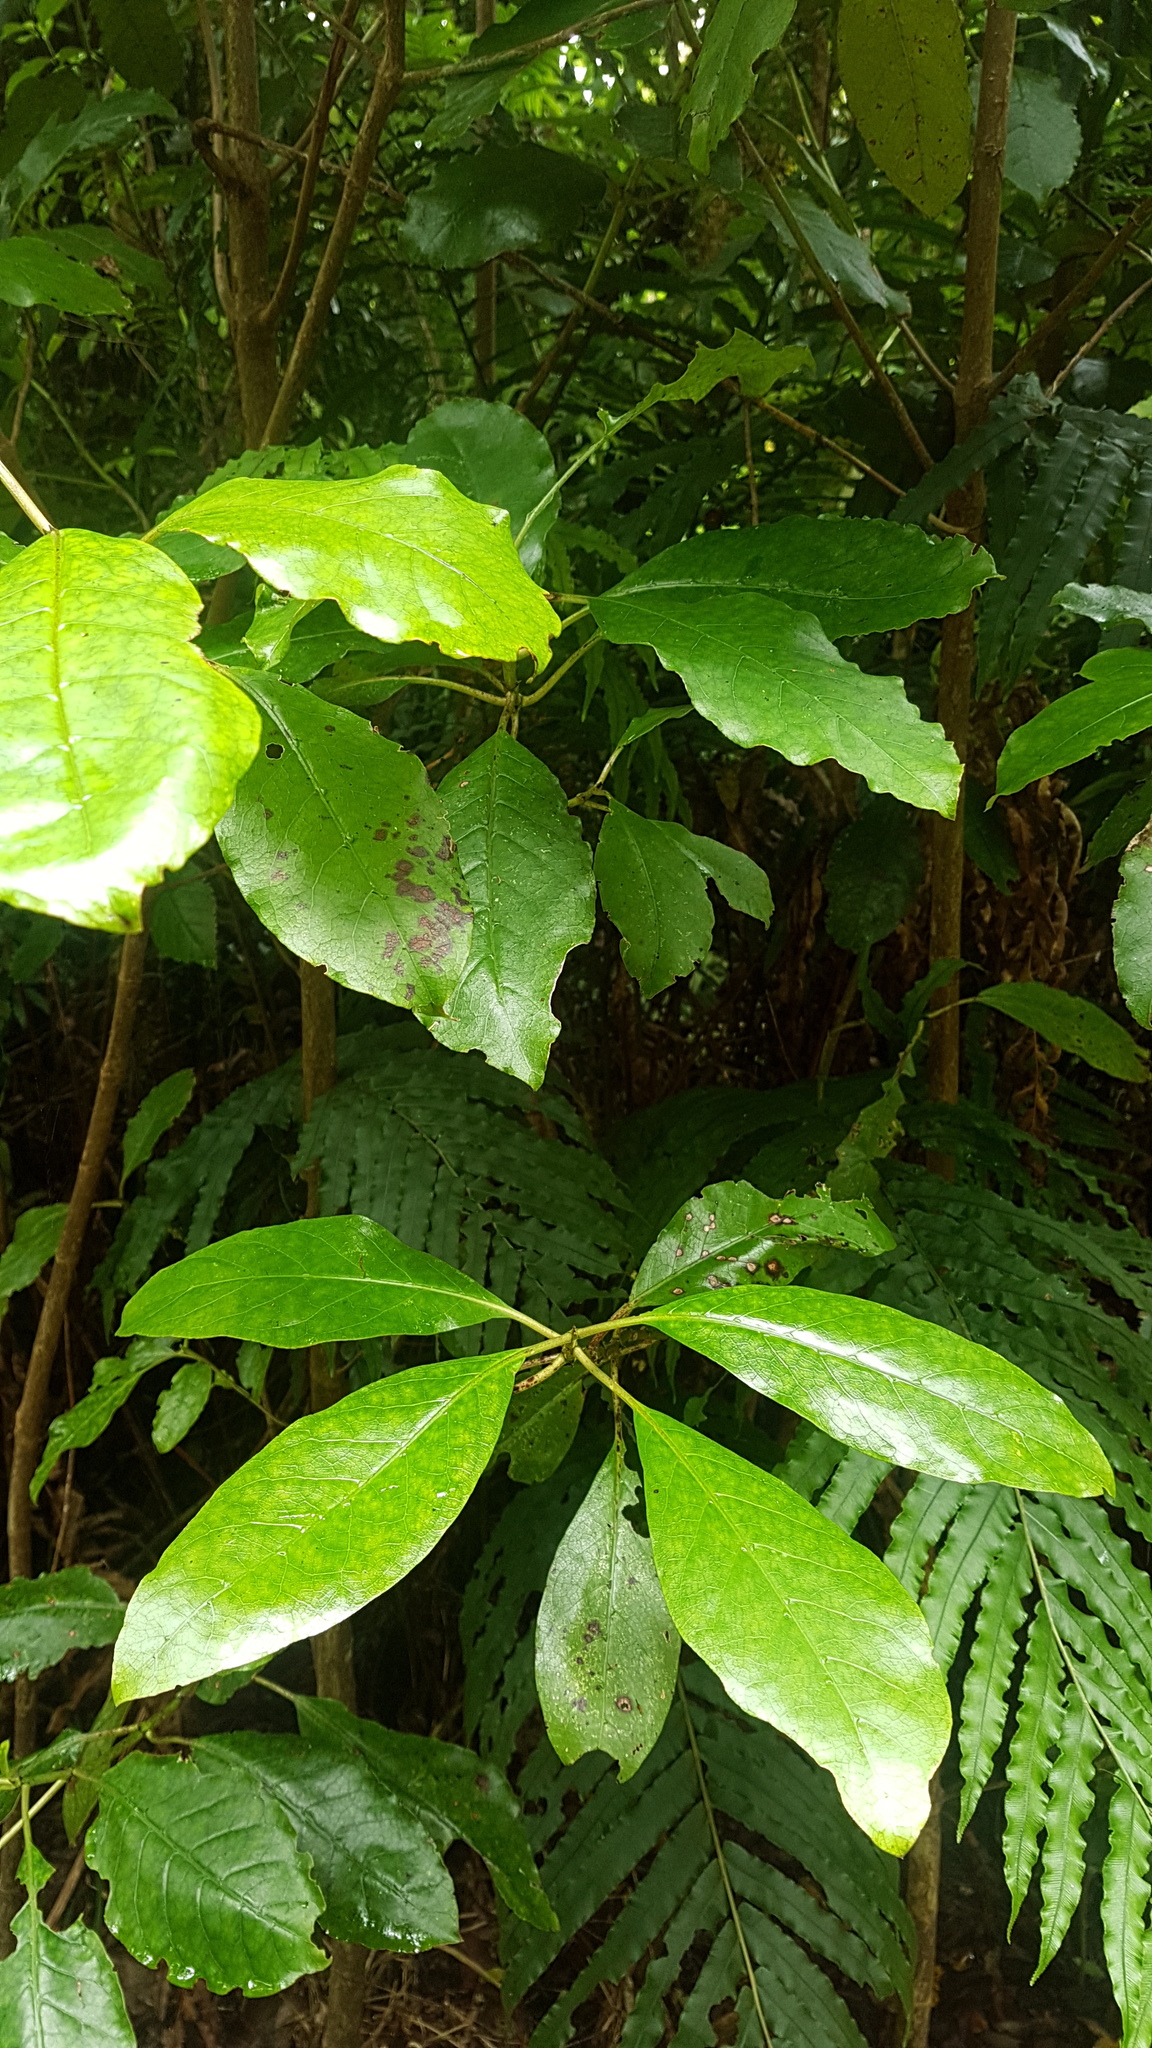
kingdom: Plantae
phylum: Tracheophyta
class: Magnoliopsida
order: Gentianales
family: Rubiaceae
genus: Coprosma
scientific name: Coprosma autumnalis
